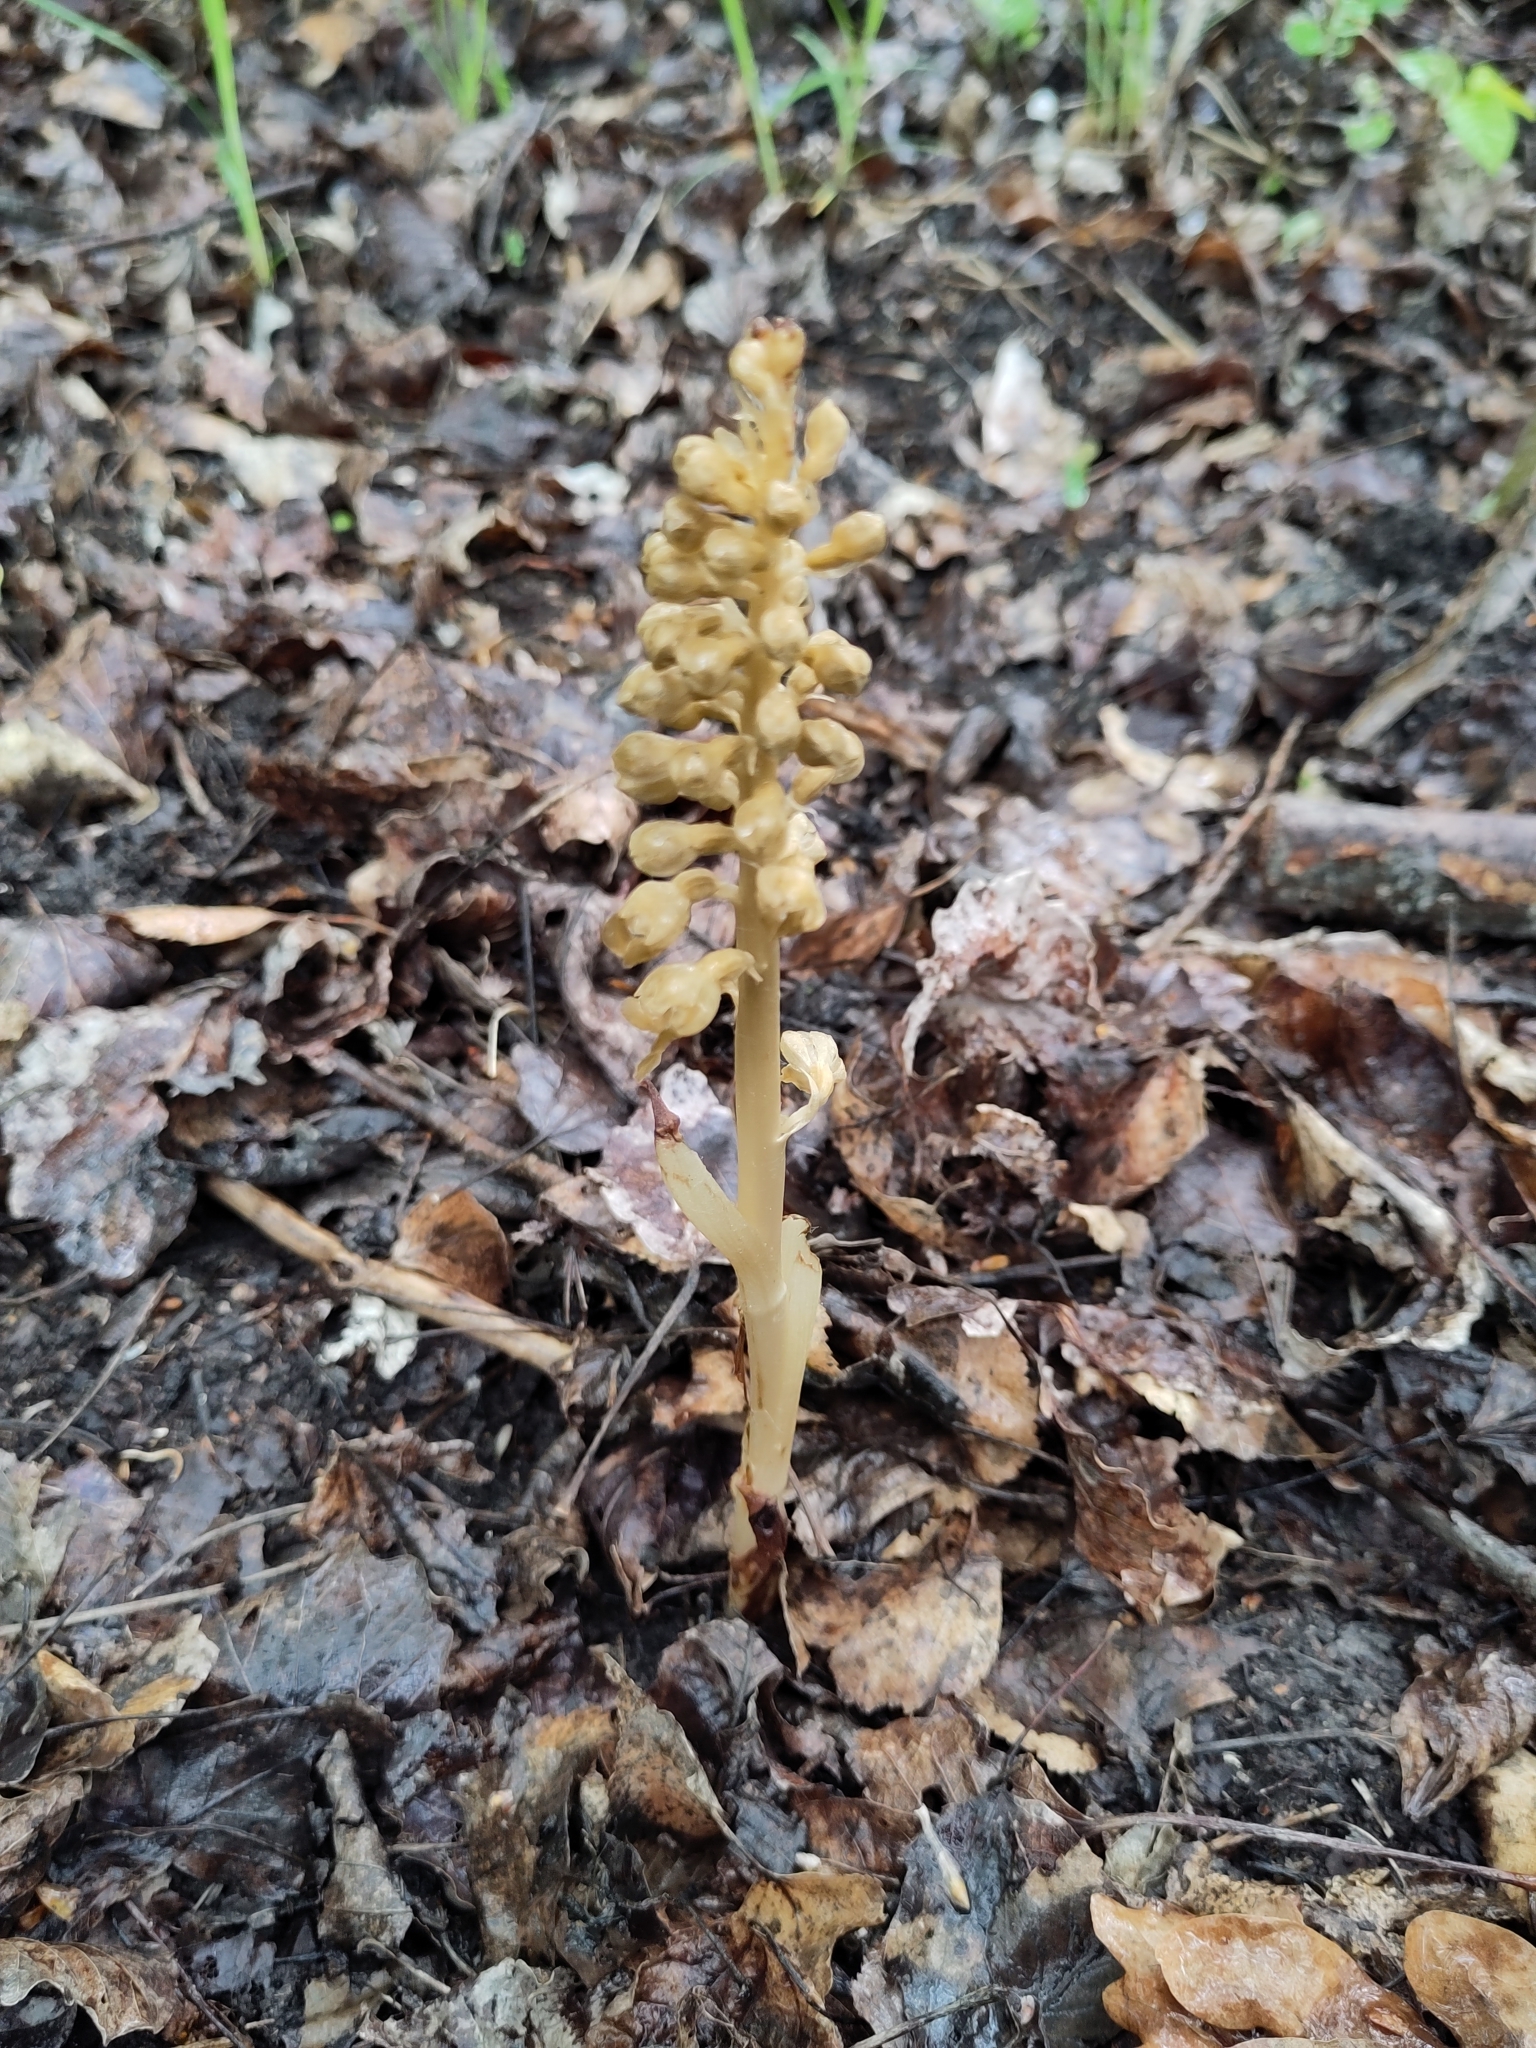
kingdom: Plantae
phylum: Tracheophyta
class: Liliopsida
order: Asparagales
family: Orchidaceae
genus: Neottia
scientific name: Neottia nidus-avis
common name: Bird's-nest orchid
